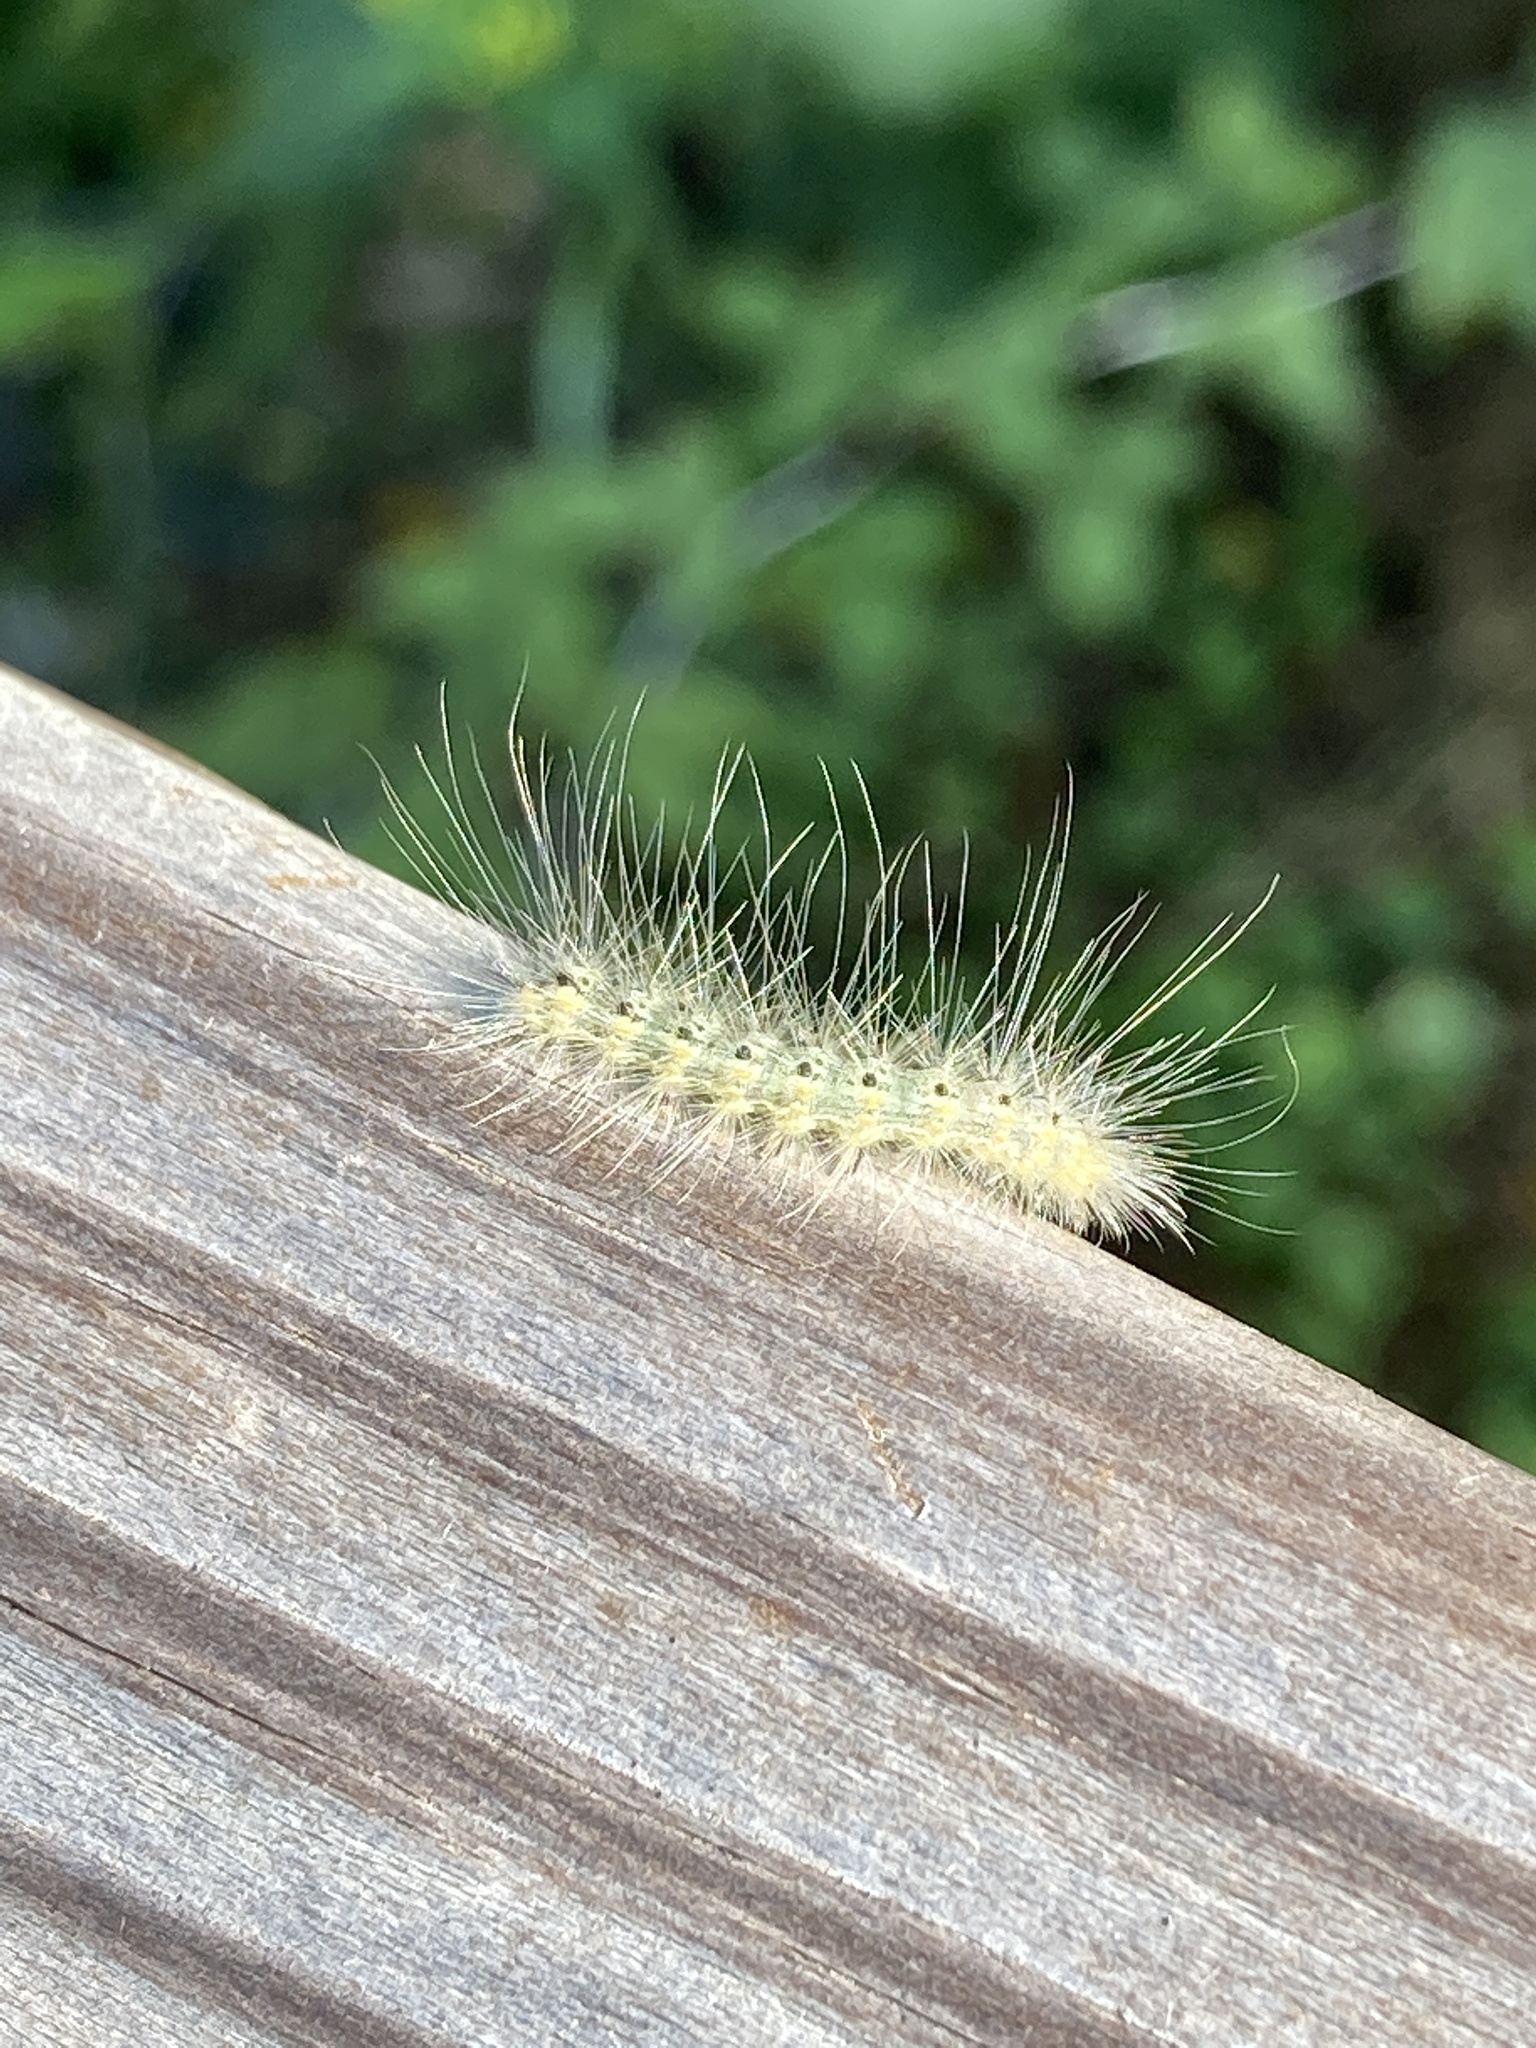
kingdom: Animalia
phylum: Arthropoda
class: Insecta
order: Lepidoptera
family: Erebidae
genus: Hyphantria
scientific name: Hyphantria cunea
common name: American white moth
